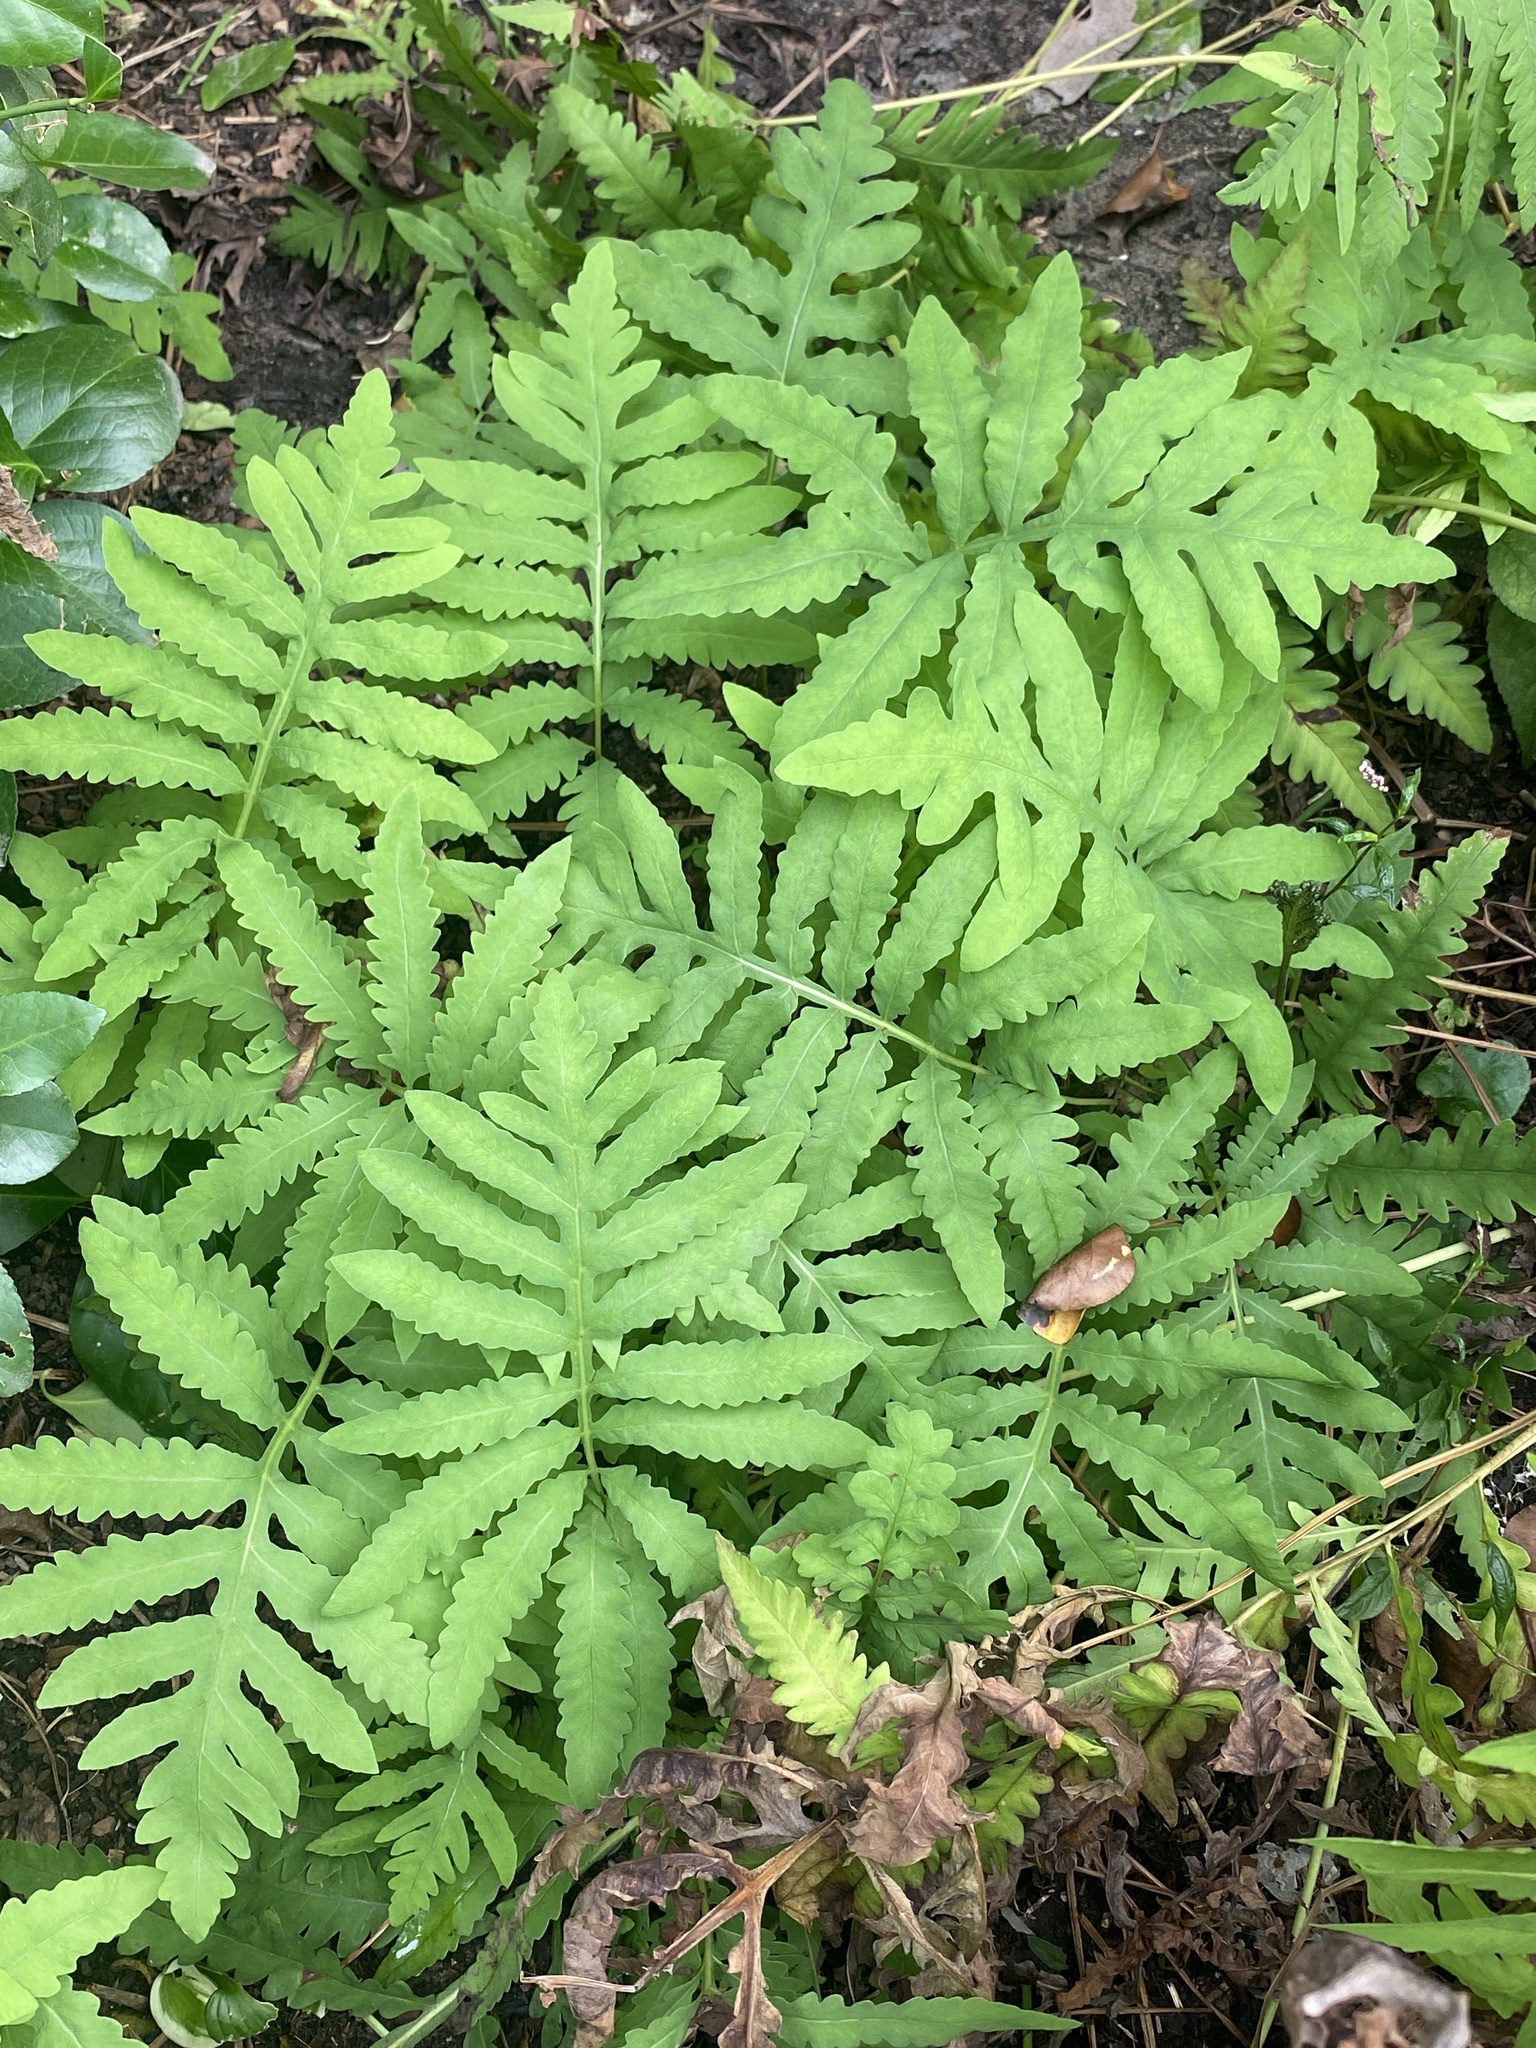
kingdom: Plantae
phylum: Tracheophyta
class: Polypodiopsida
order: Polypodiales
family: Onocleaceae
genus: Onoclea
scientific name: Onoclea sensibilis
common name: Sensitive fern
